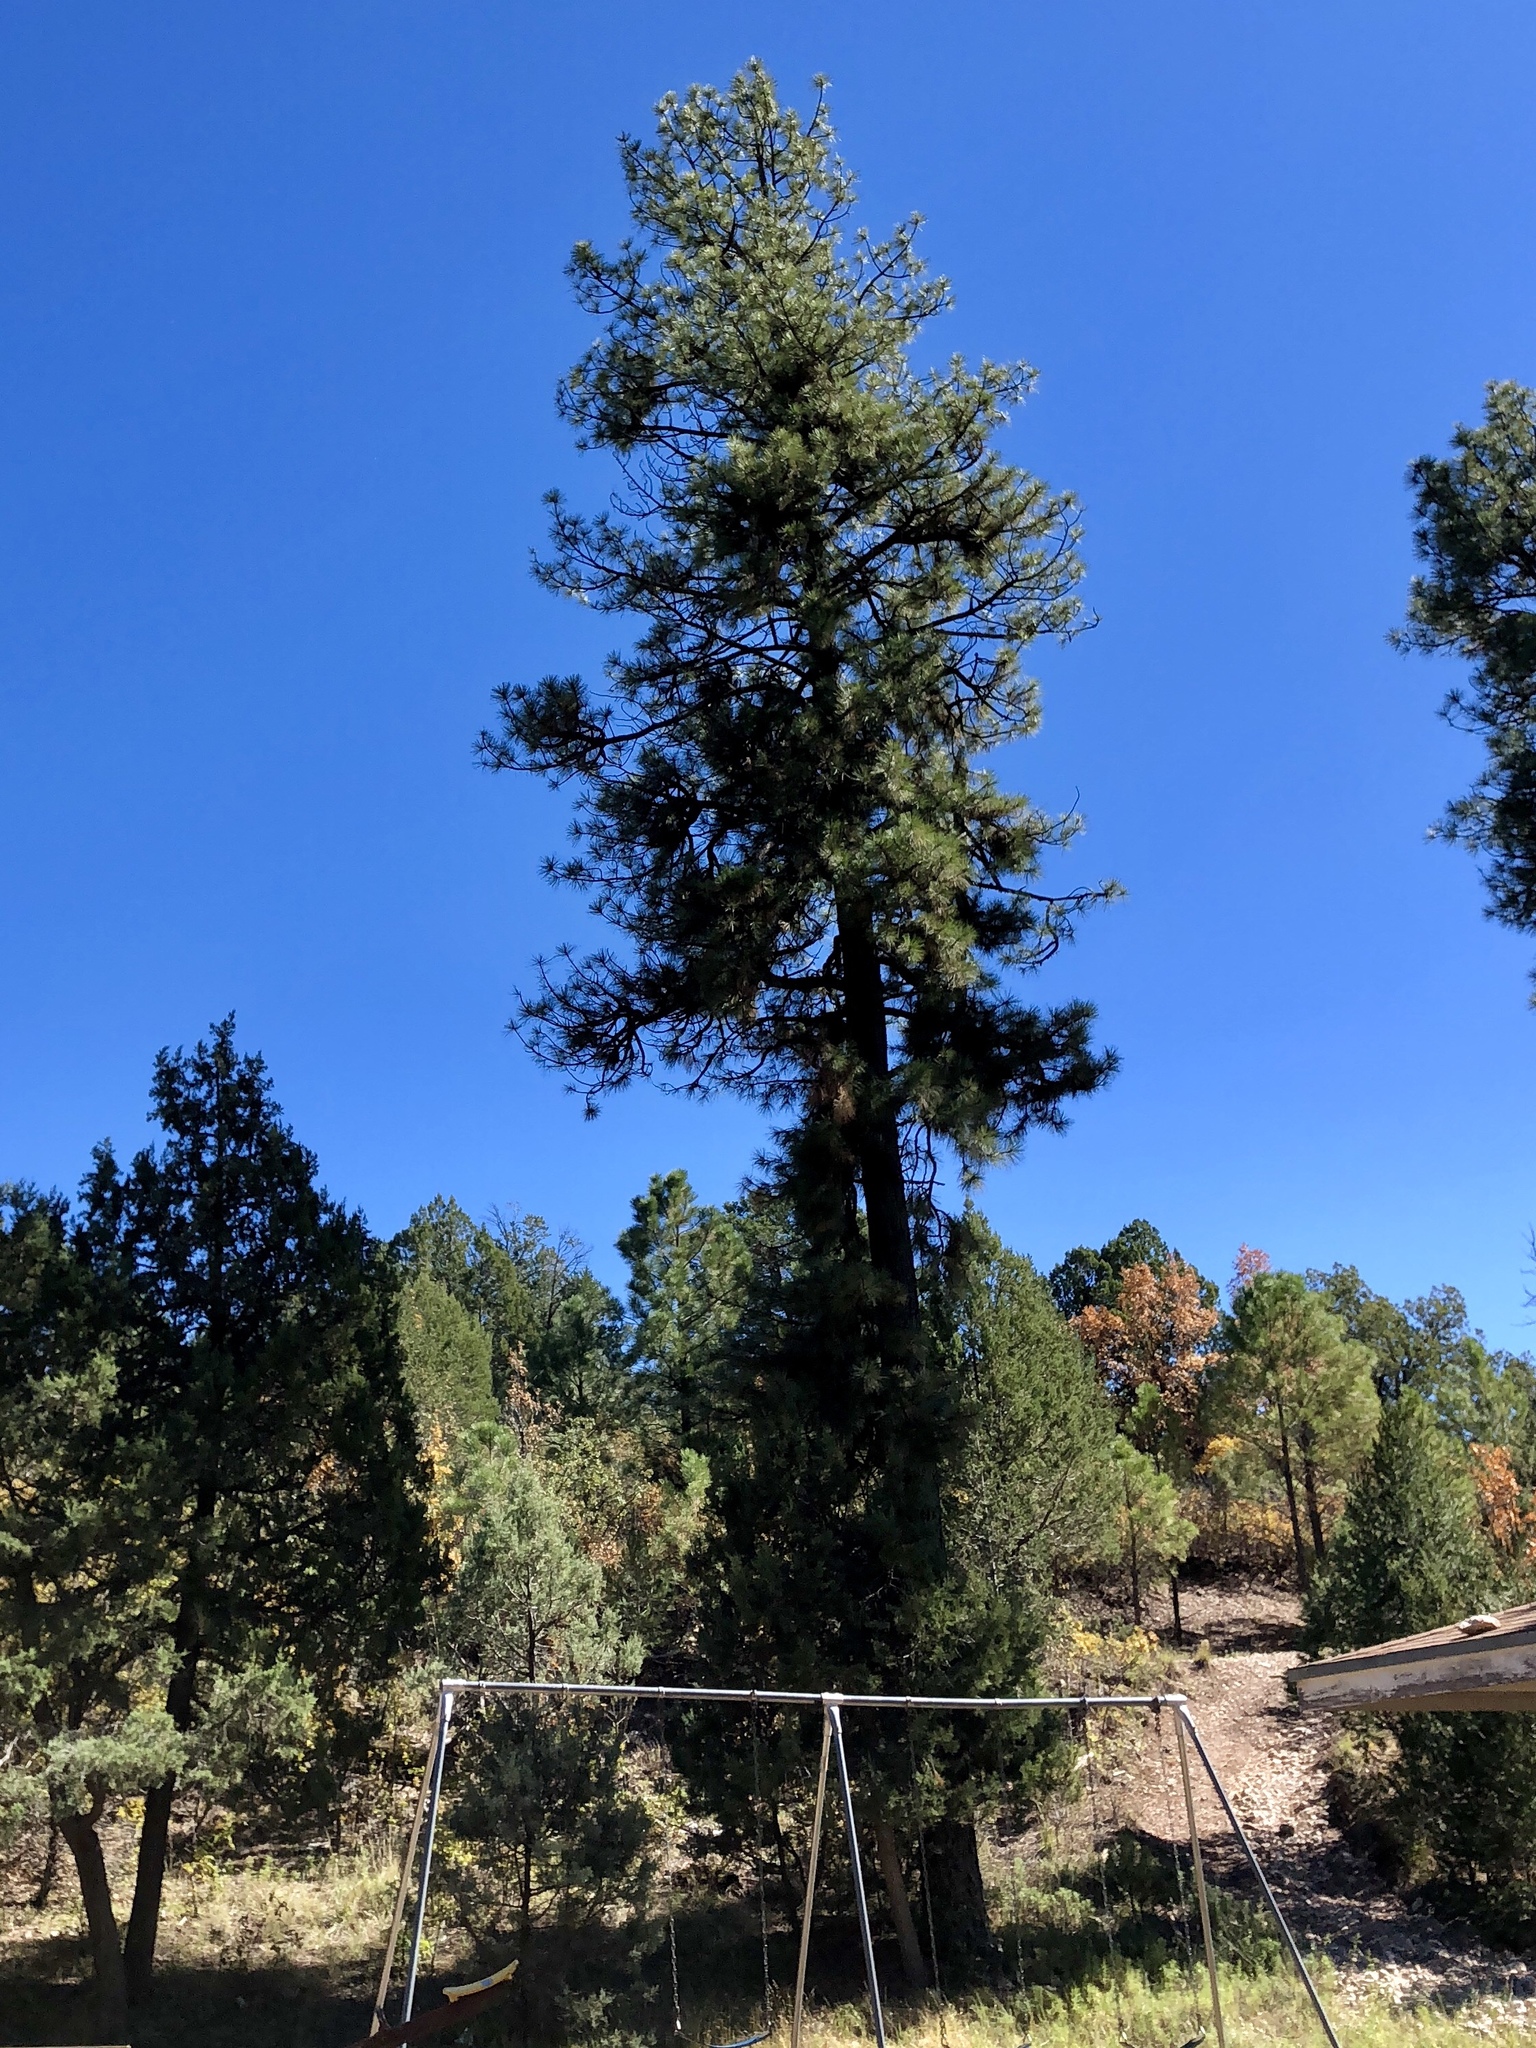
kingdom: Plantae
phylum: Tracheophyta
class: Pinopsida
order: Pinales
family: Pinaceae
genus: Pinus
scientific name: Pinus ponderosa
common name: Western yellow-pine
